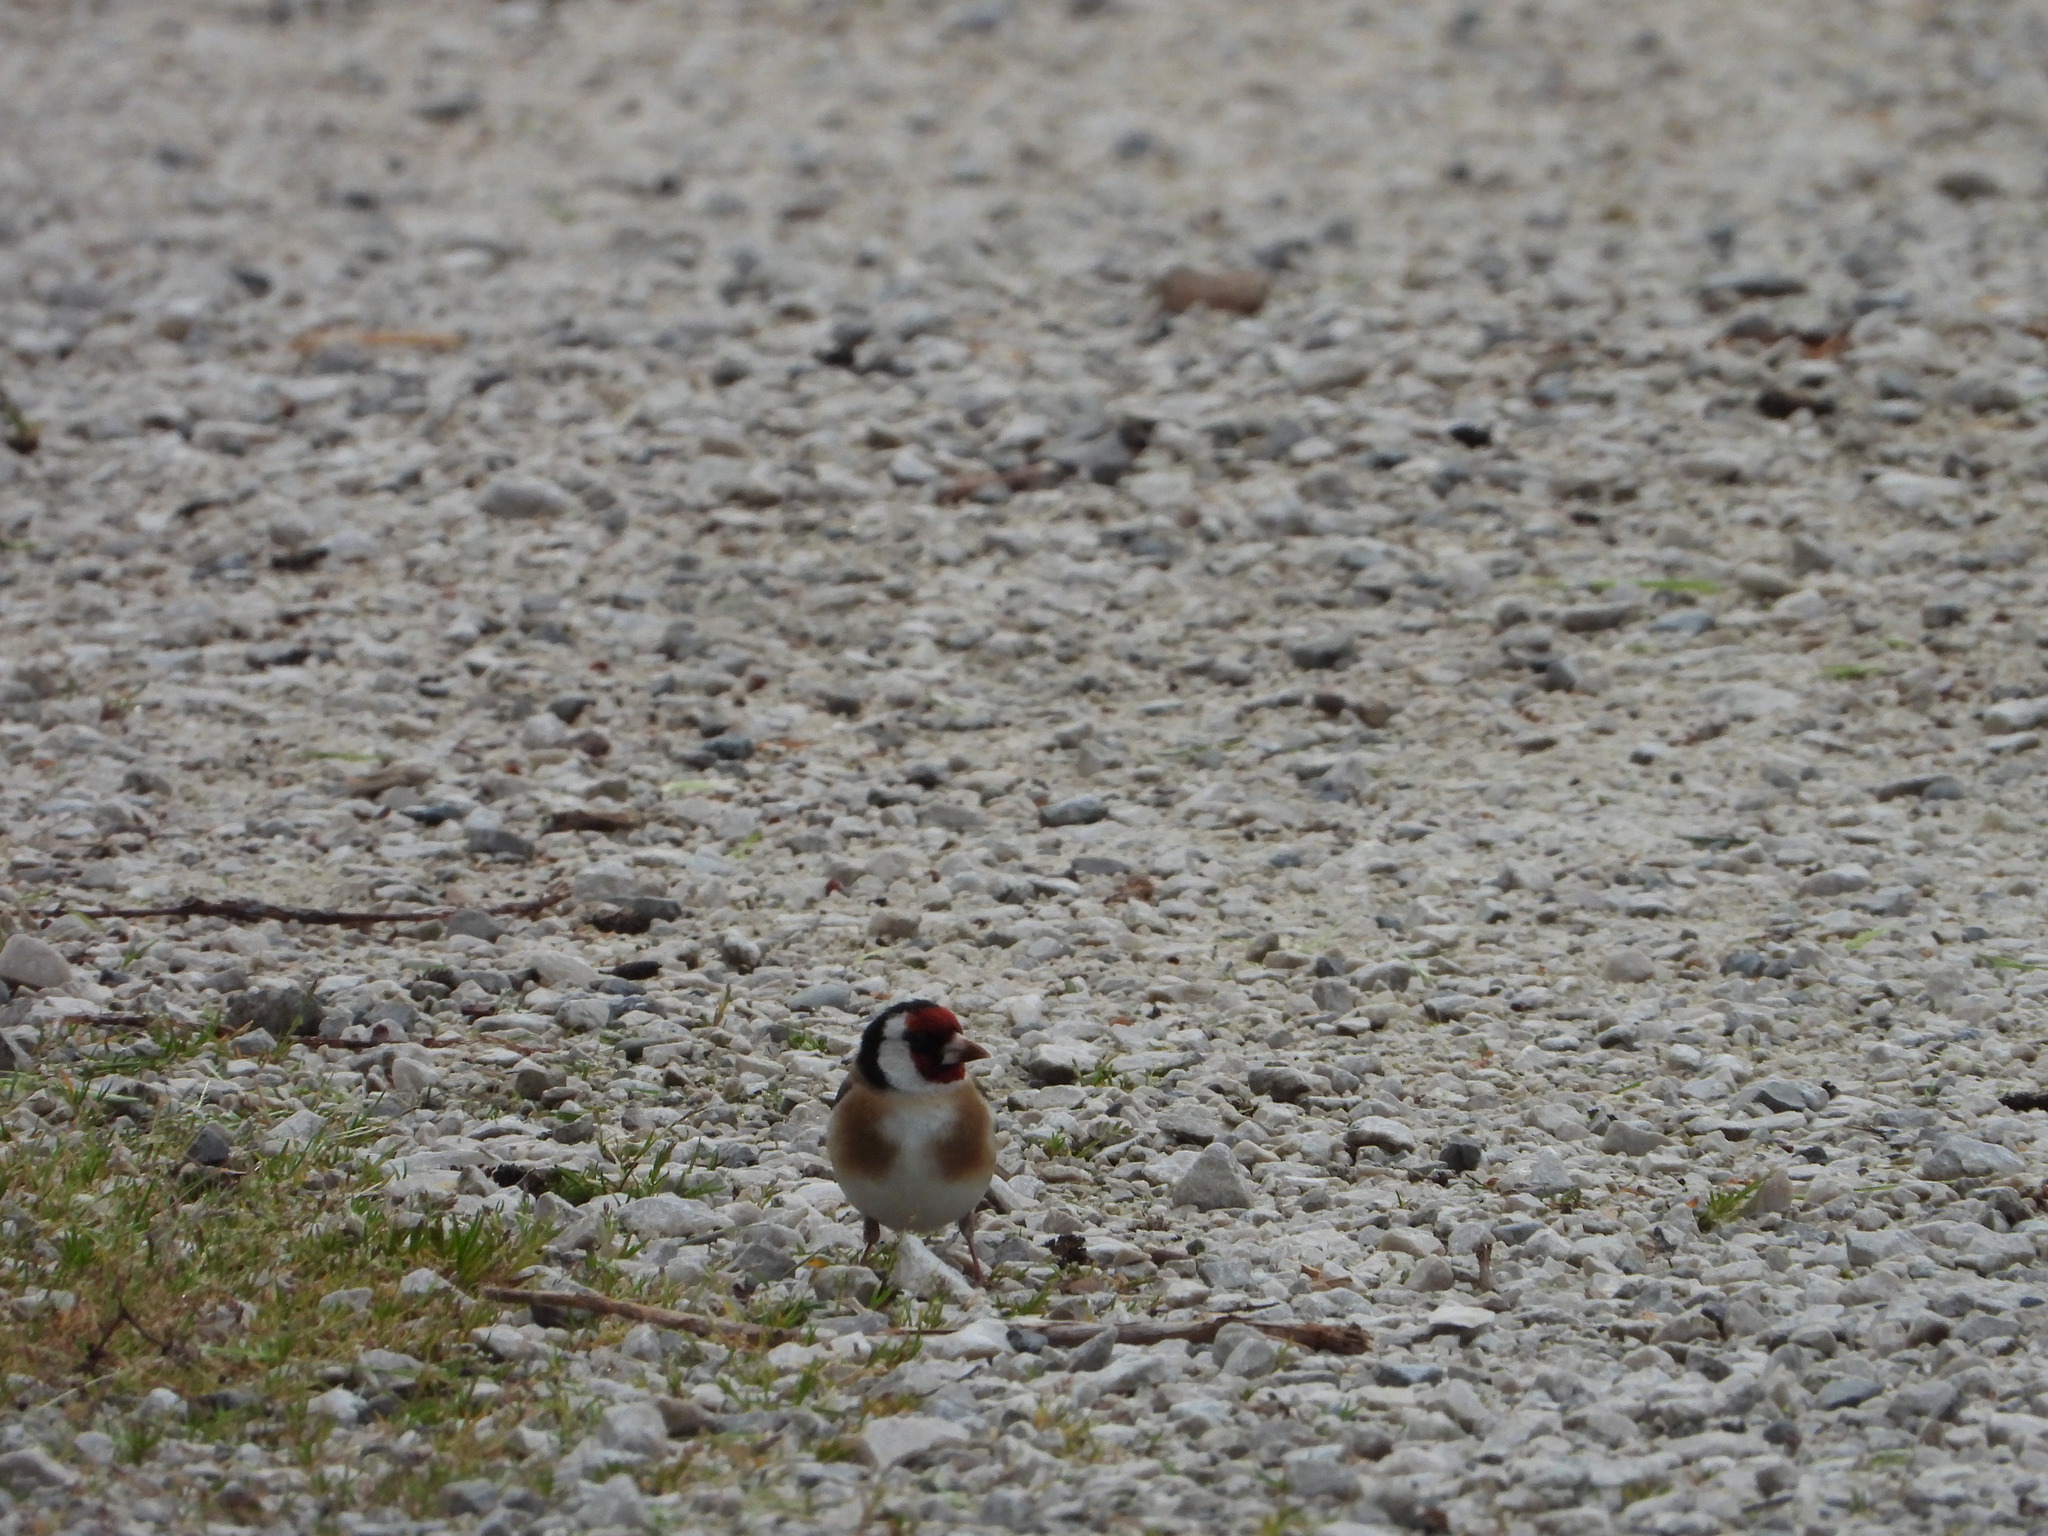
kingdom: Animalia
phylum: Chordata
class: Aves
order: Passeriformes
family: Fringillidae
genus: Carduelis
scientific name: Carduelis carduelis
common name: European goldfinch
